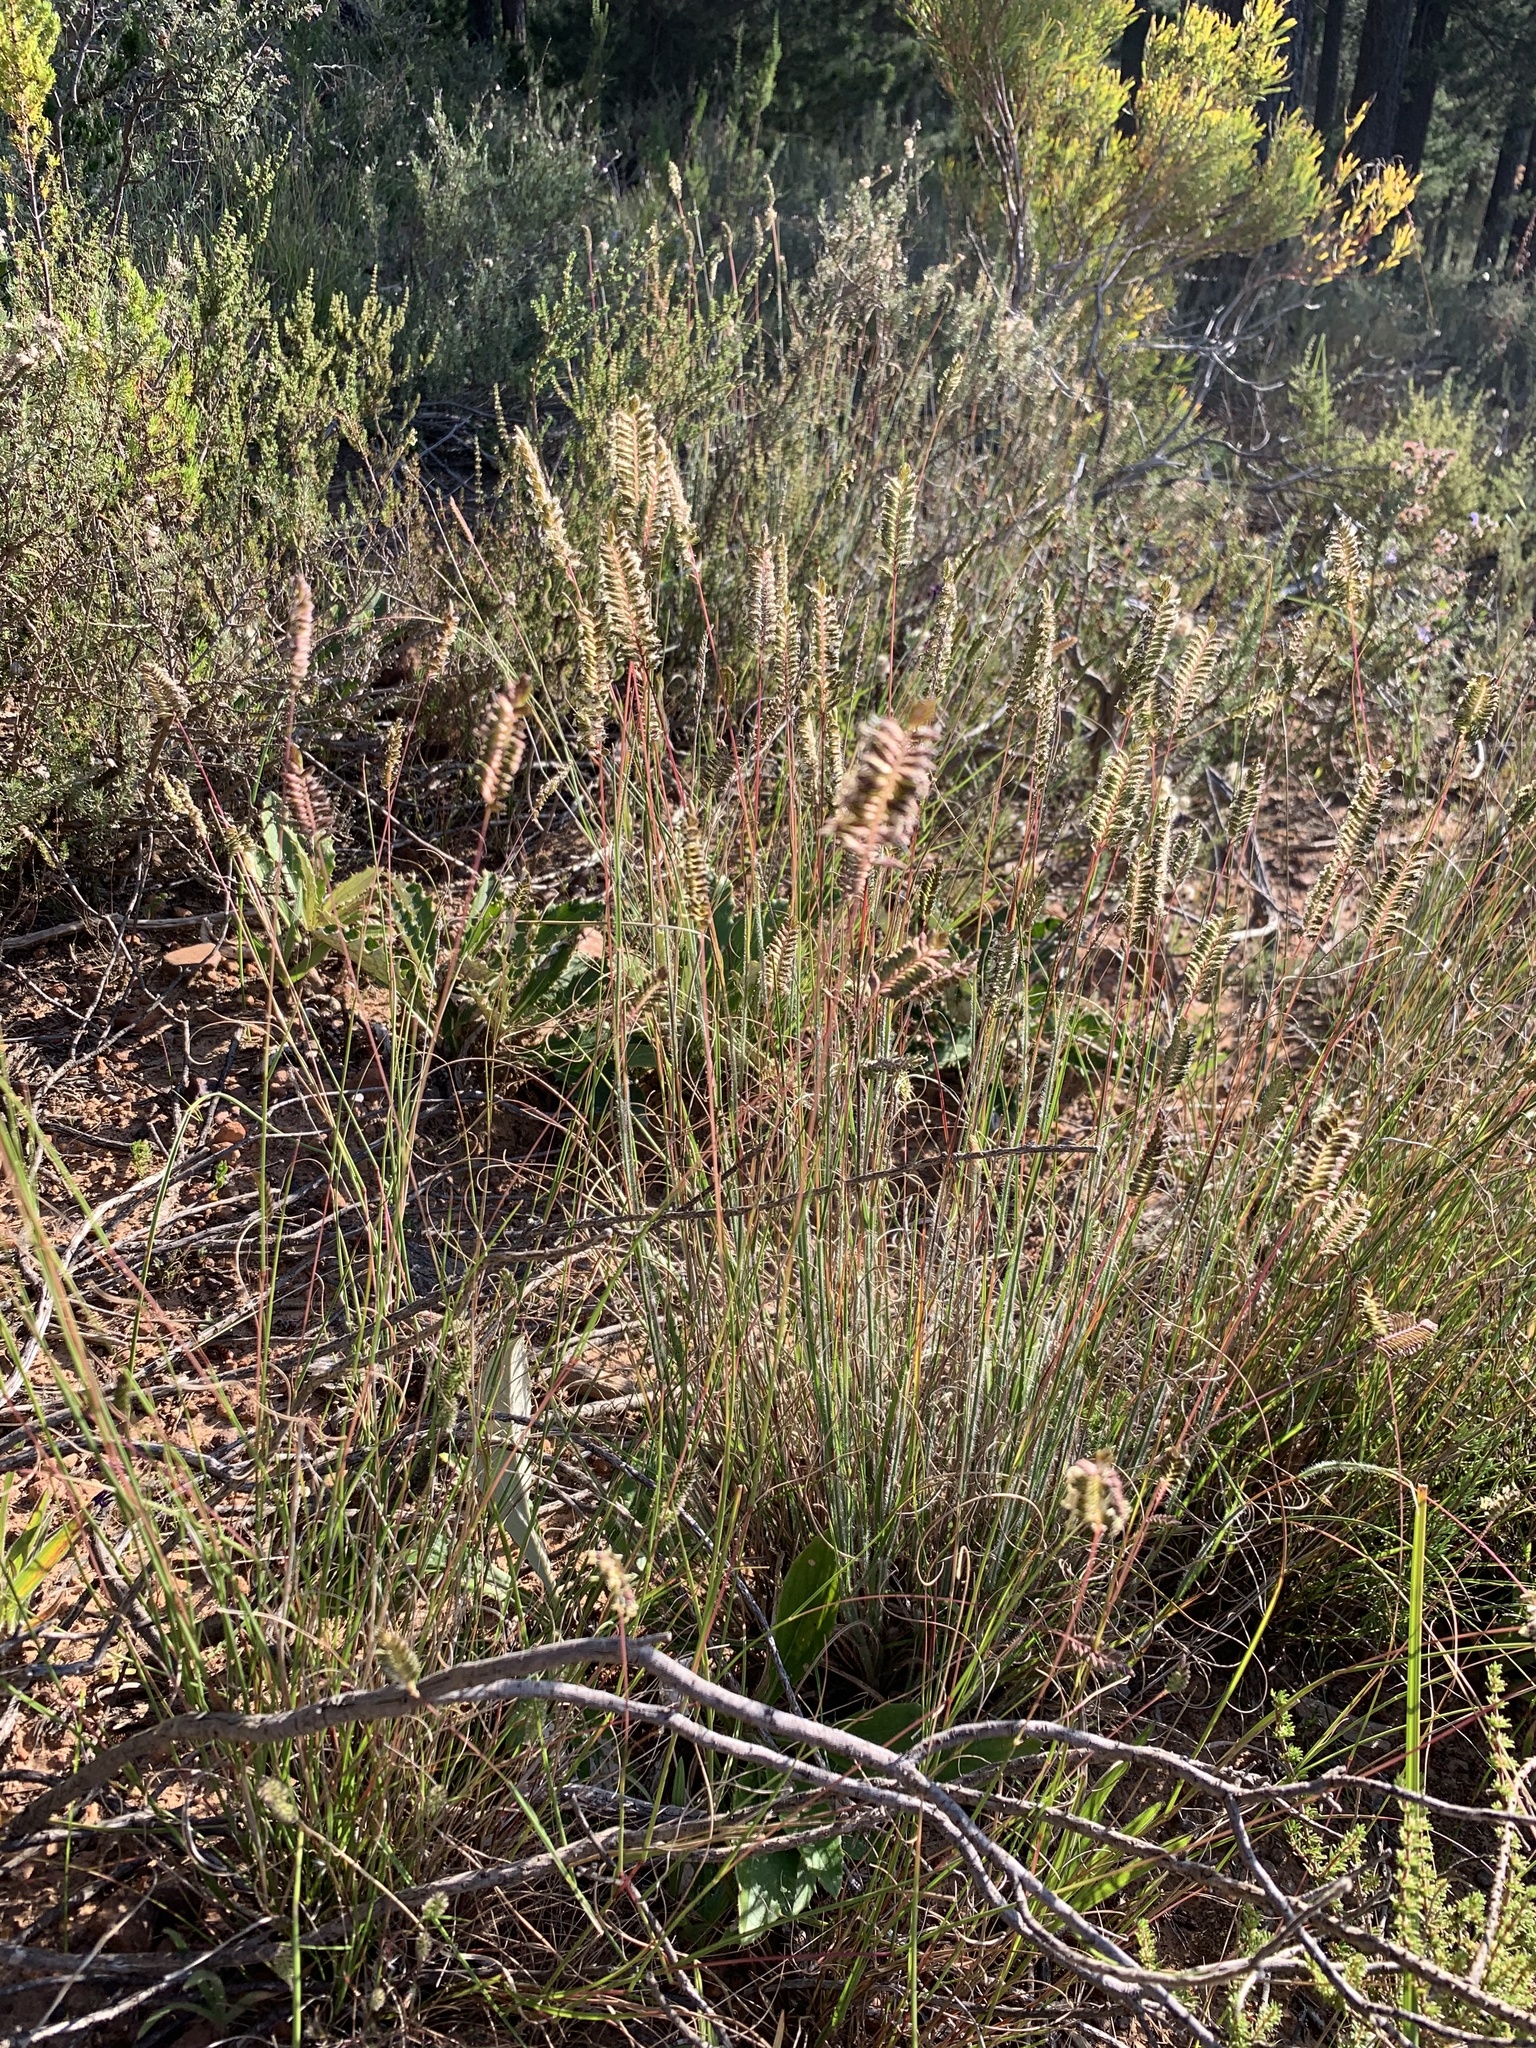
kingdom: Plantae
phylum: Tracheophyta
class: Liliopsida
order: Poales
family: Poaceae
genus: Tribolium
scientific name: Tribolium uniolae
